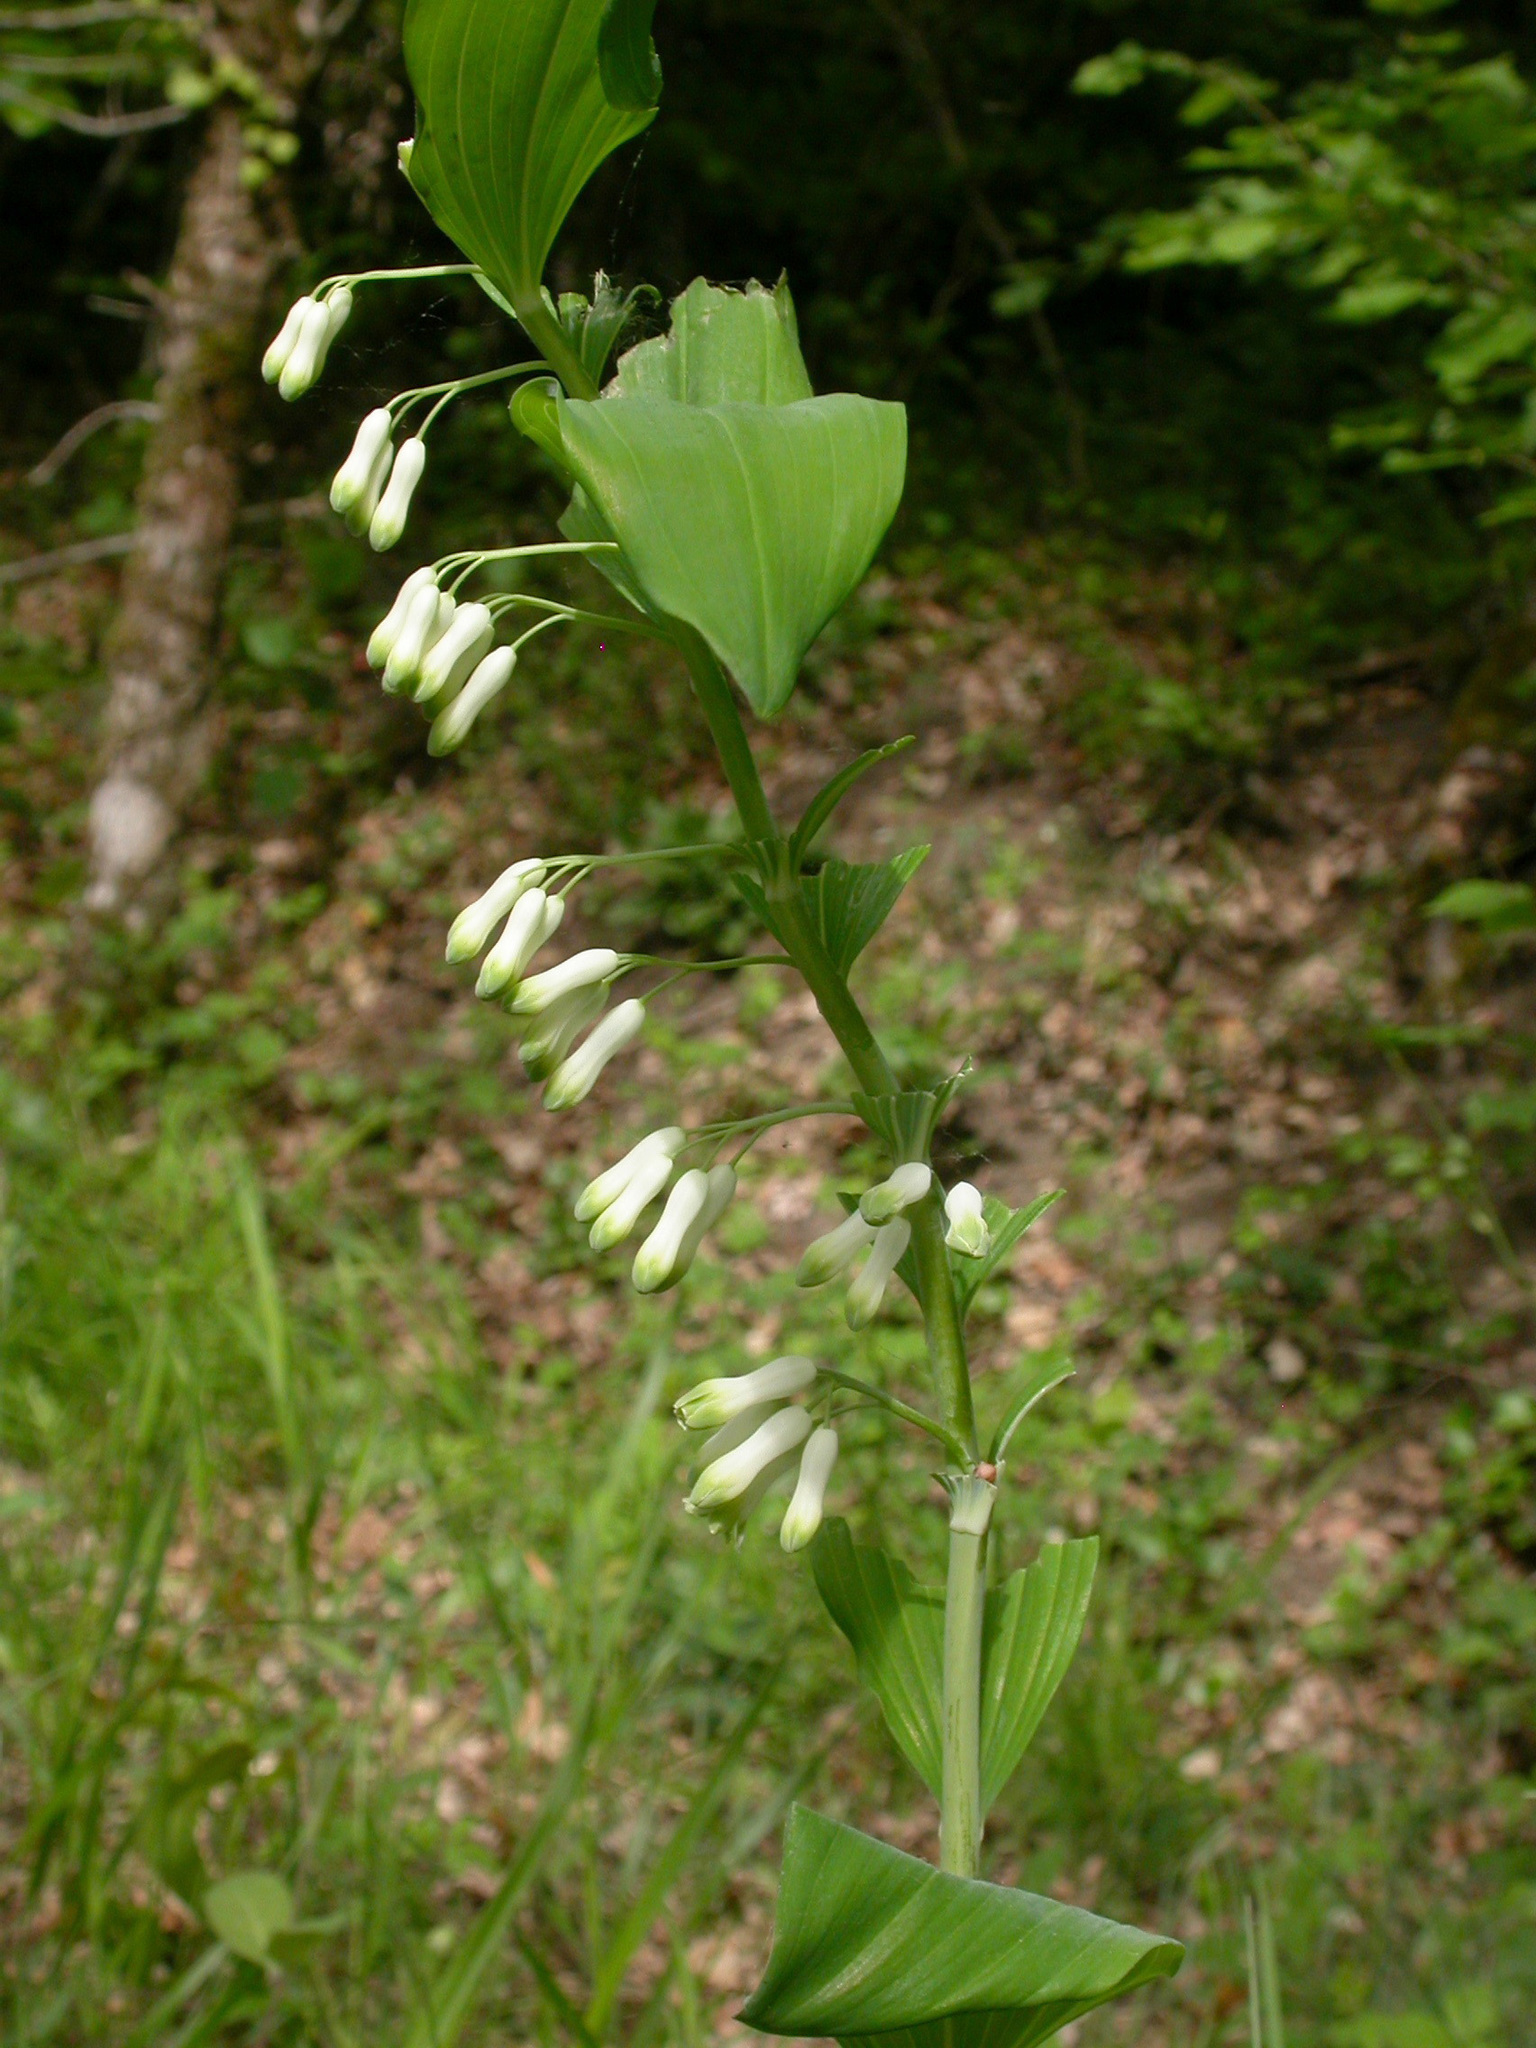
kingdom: Plantae
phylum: Tracheophyta
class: Liliopsida
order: Asparagales
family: Asparagaceae
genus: Polygonatum
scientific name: Polygonatum multiflorum
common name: Solomon's-seal
